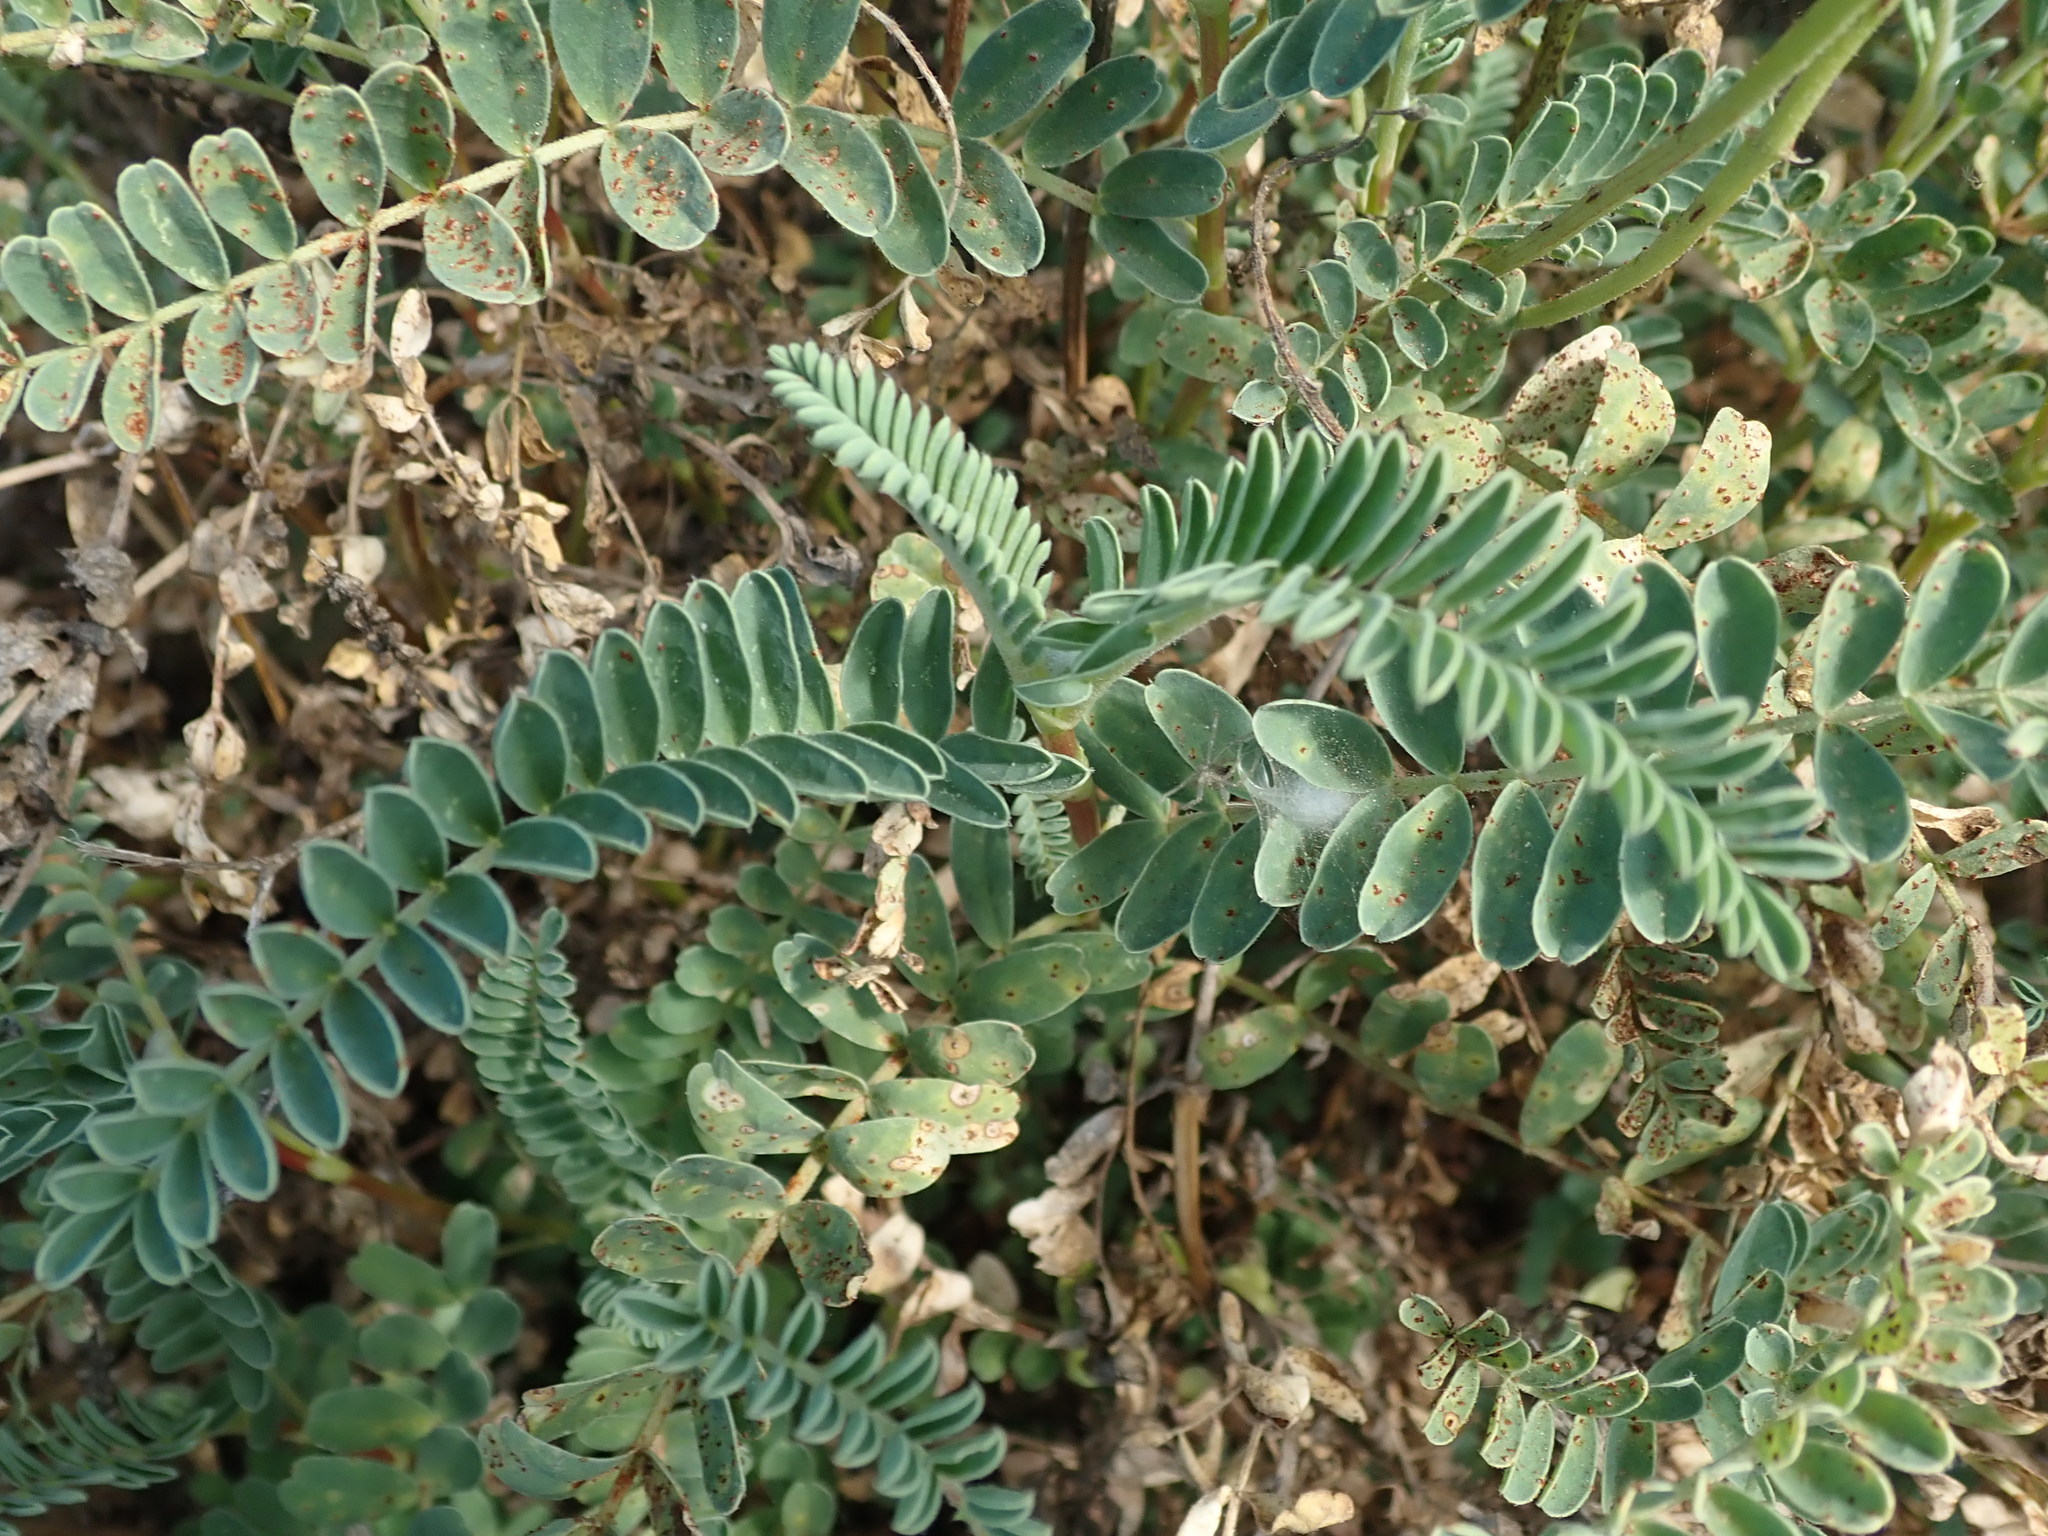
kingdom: Plantae
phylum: Tracheophyta
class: Magnoliopsida
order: Fabales
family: Fabaceae
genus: Astragalus
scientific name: Astragalus nuttallii
